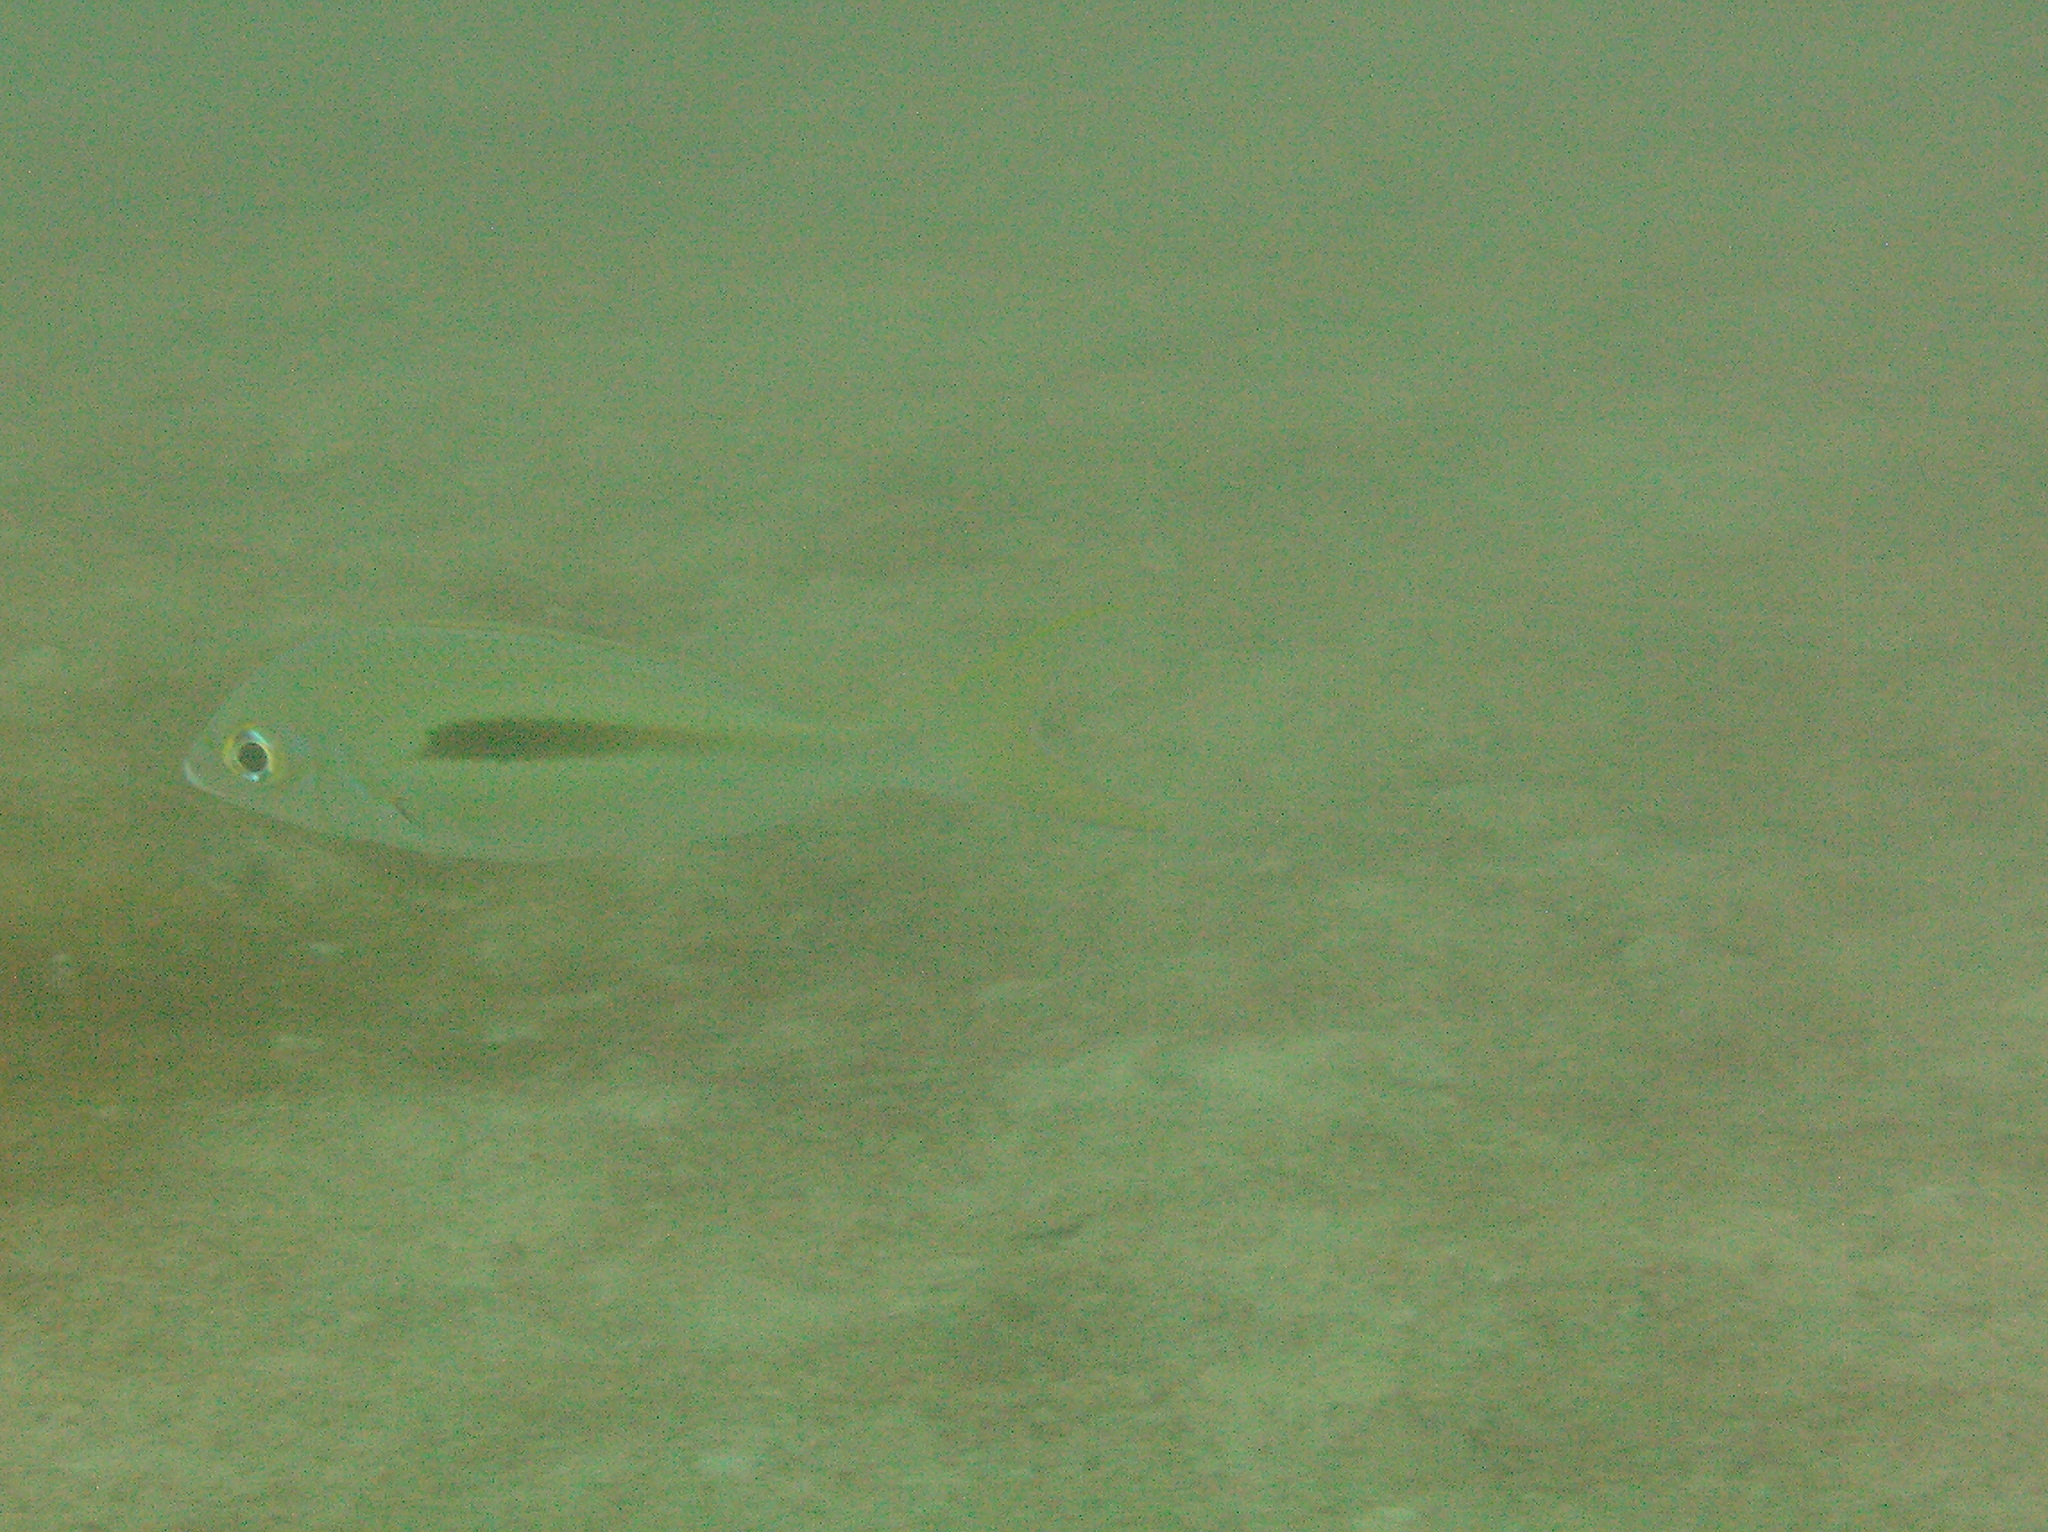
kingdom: Animalia
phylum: Chordata
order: Perciformes
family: Nemipteridae
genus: Scolopsis
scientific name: Scolopsis monogramma
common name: Monogrammed monocle bream
